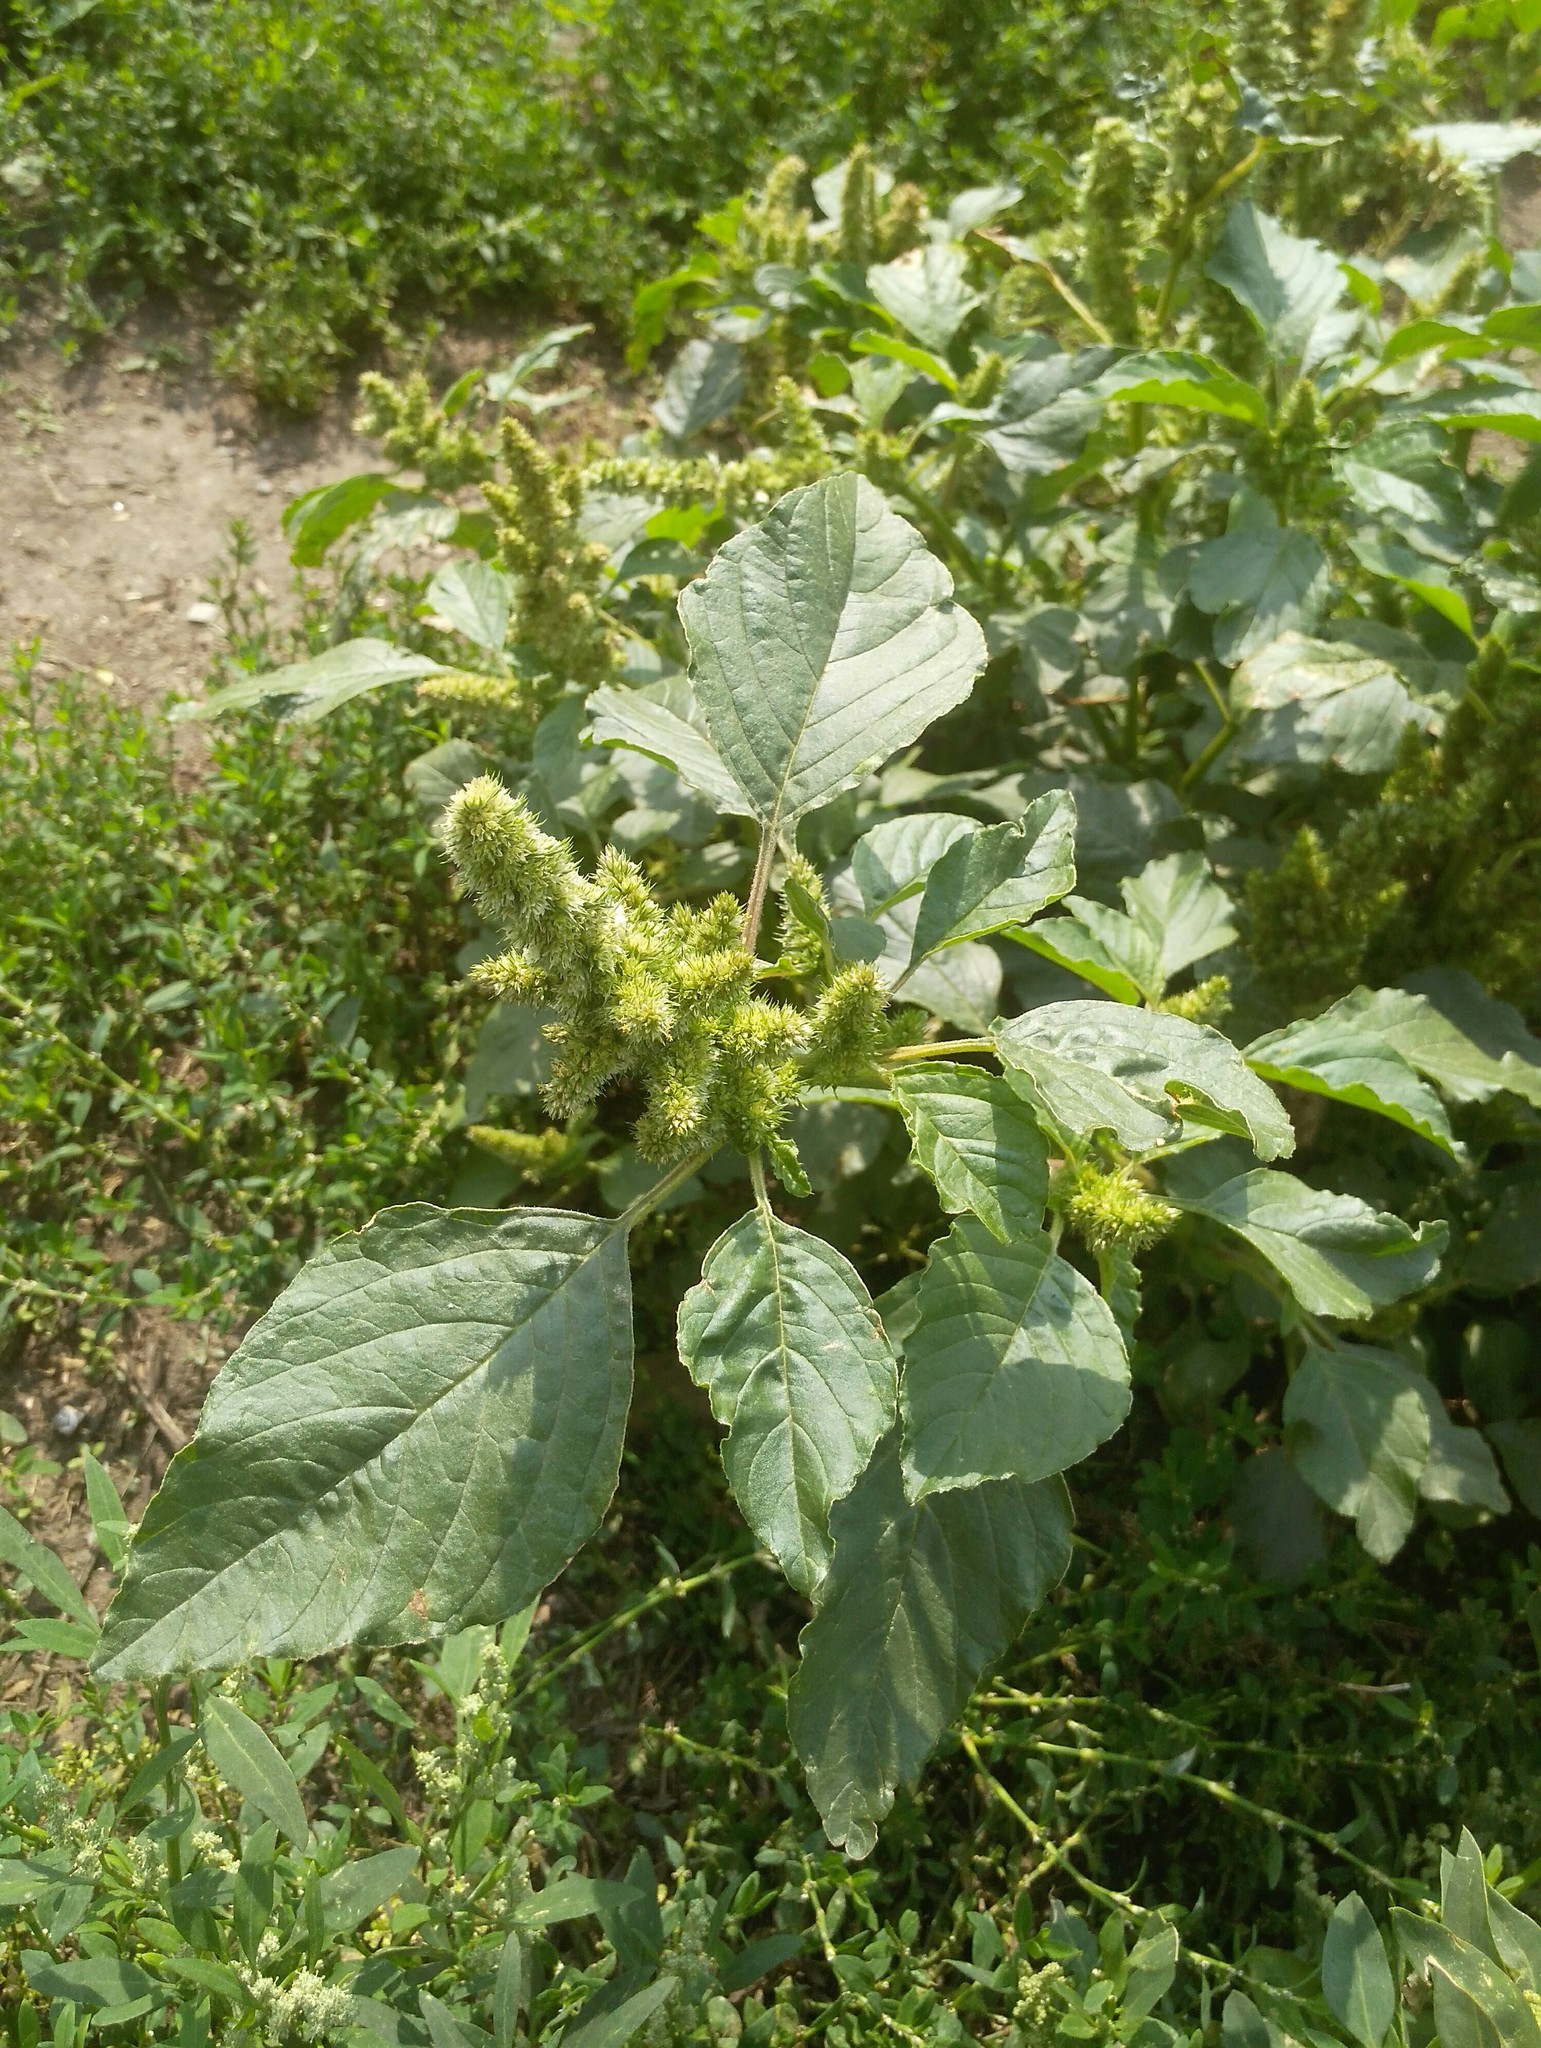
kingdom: Plantae
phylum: Tracheophyta
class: Magnoliopsida
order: Caryophyllales
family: Amaranthaceae
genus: Amaranthus
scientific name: Amaranthus retroflexus
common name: Redroot amaranth
